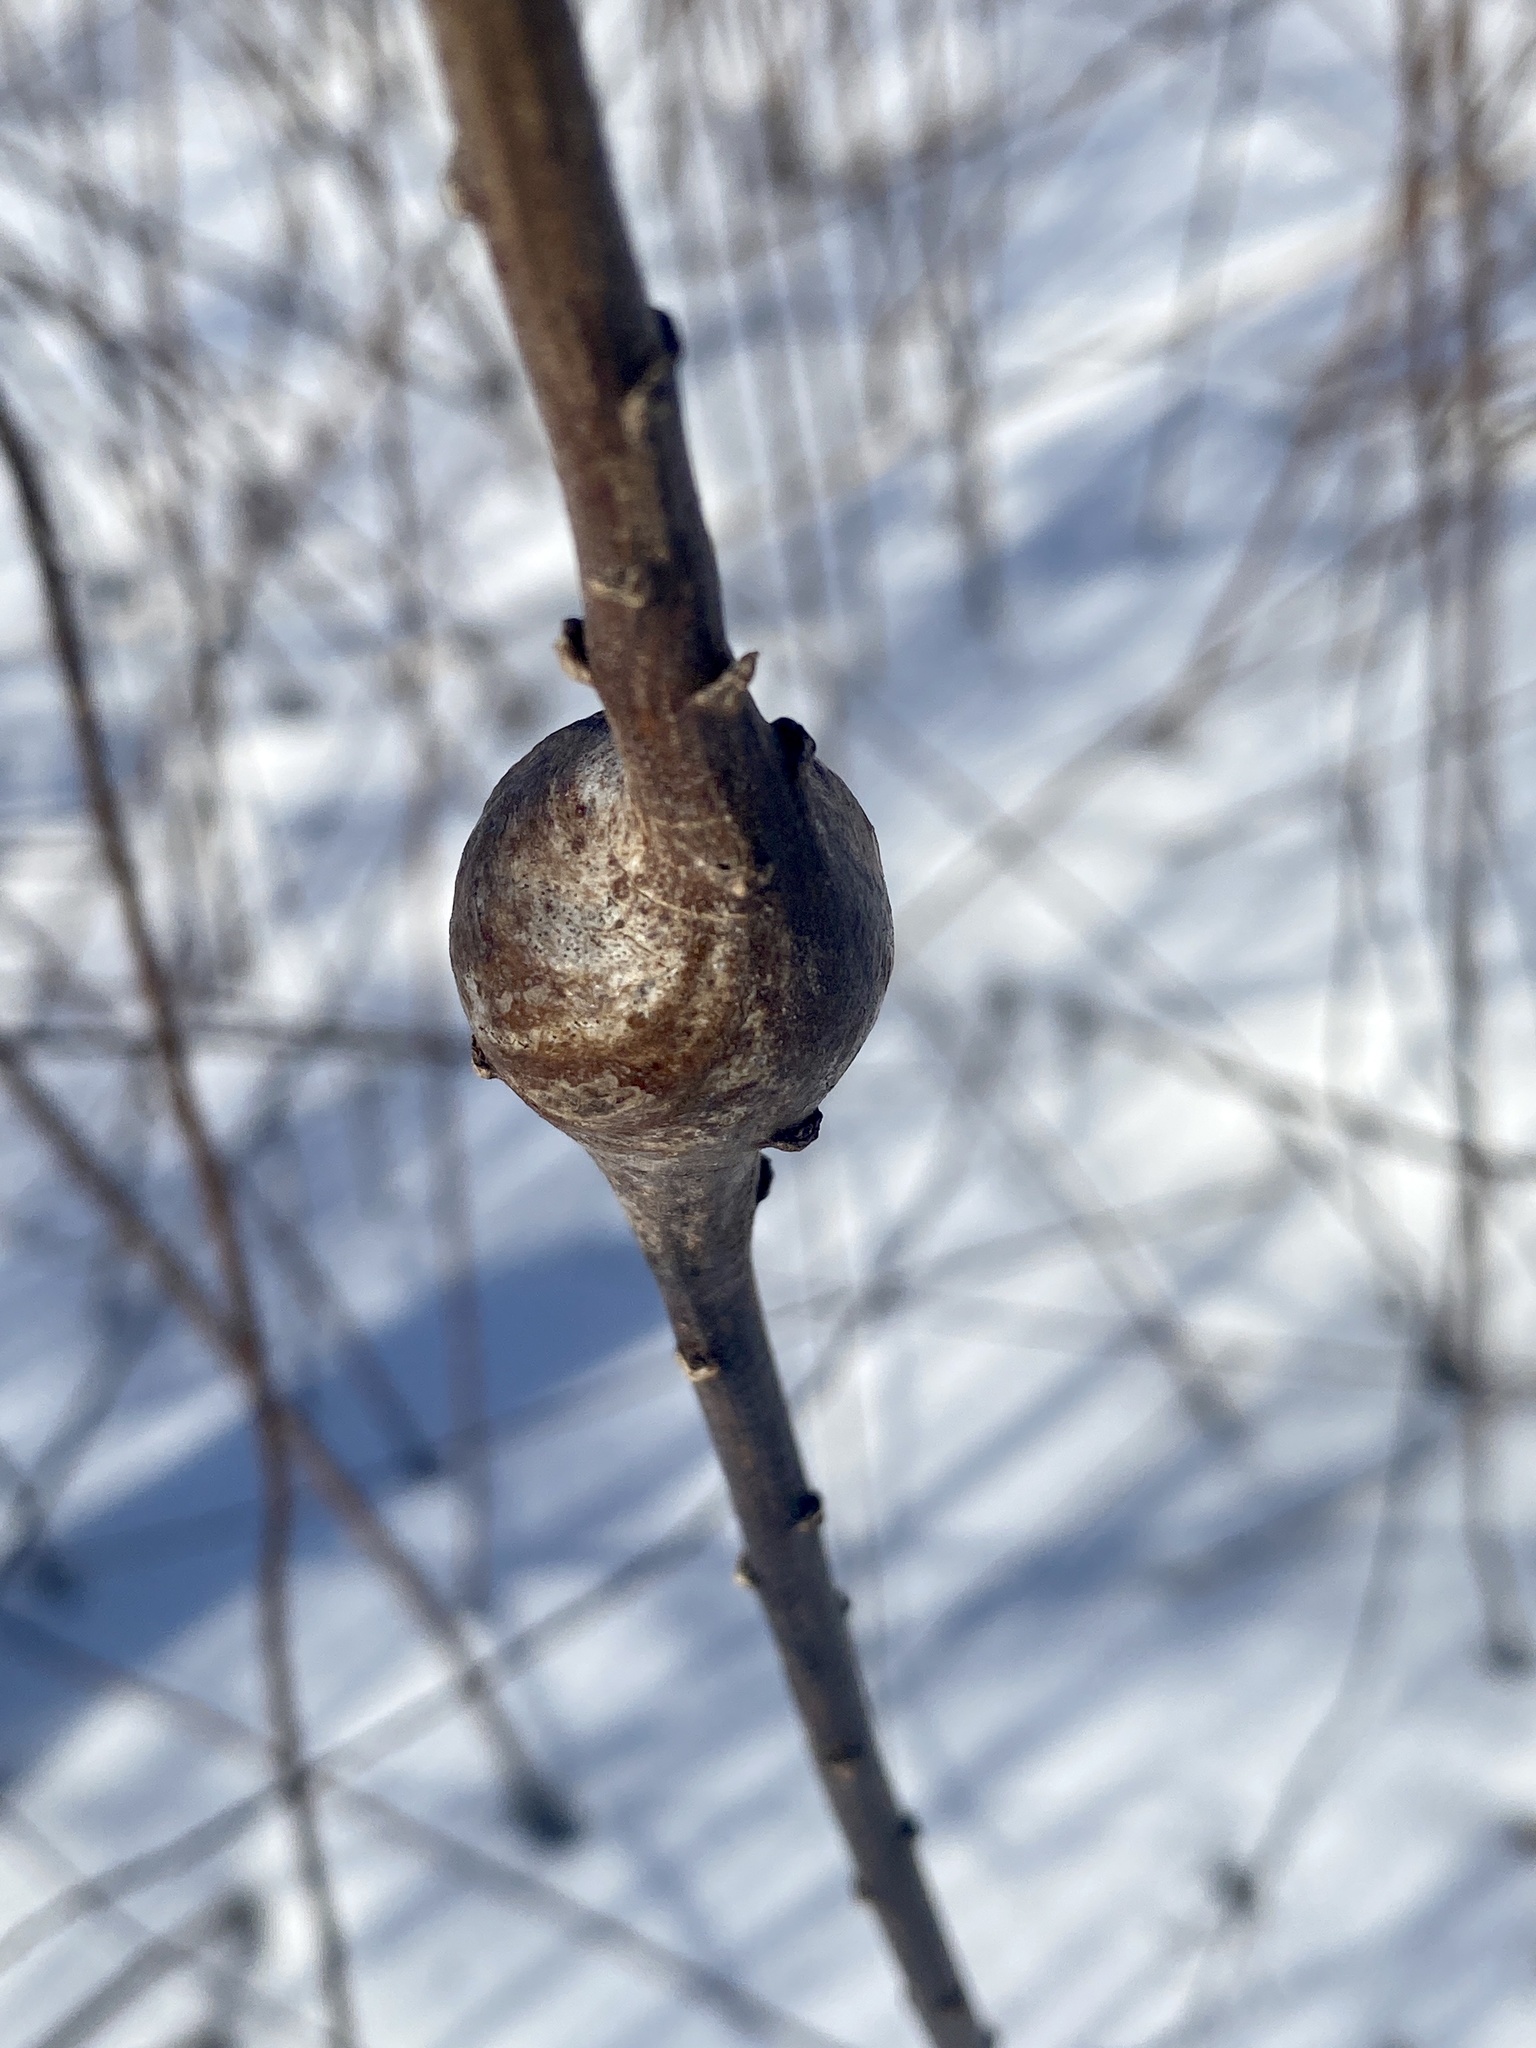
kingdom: Animalia
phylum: Arthropoda
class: Insecta
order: Diptera
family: Tephritidae
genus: Eurosta
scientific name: Eurosta solidaginis
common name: Goldenrod gall fly
